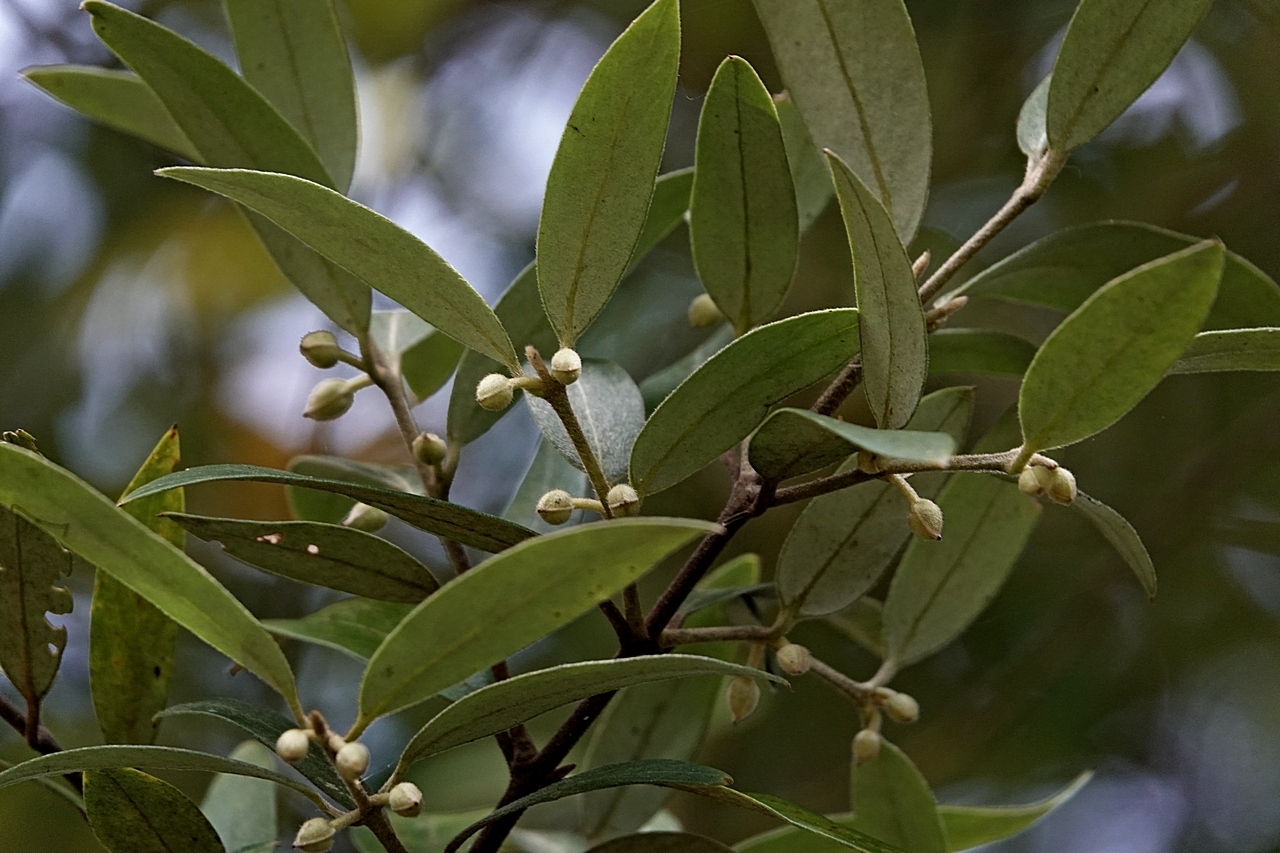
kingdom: Plantae
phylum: Tracheophyta
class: Magnoliopsida
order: Laurales
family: Atherospermataceae
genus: Atherosperma
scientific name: Atherosperma moschatum
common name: Tasmanian-sassafras
